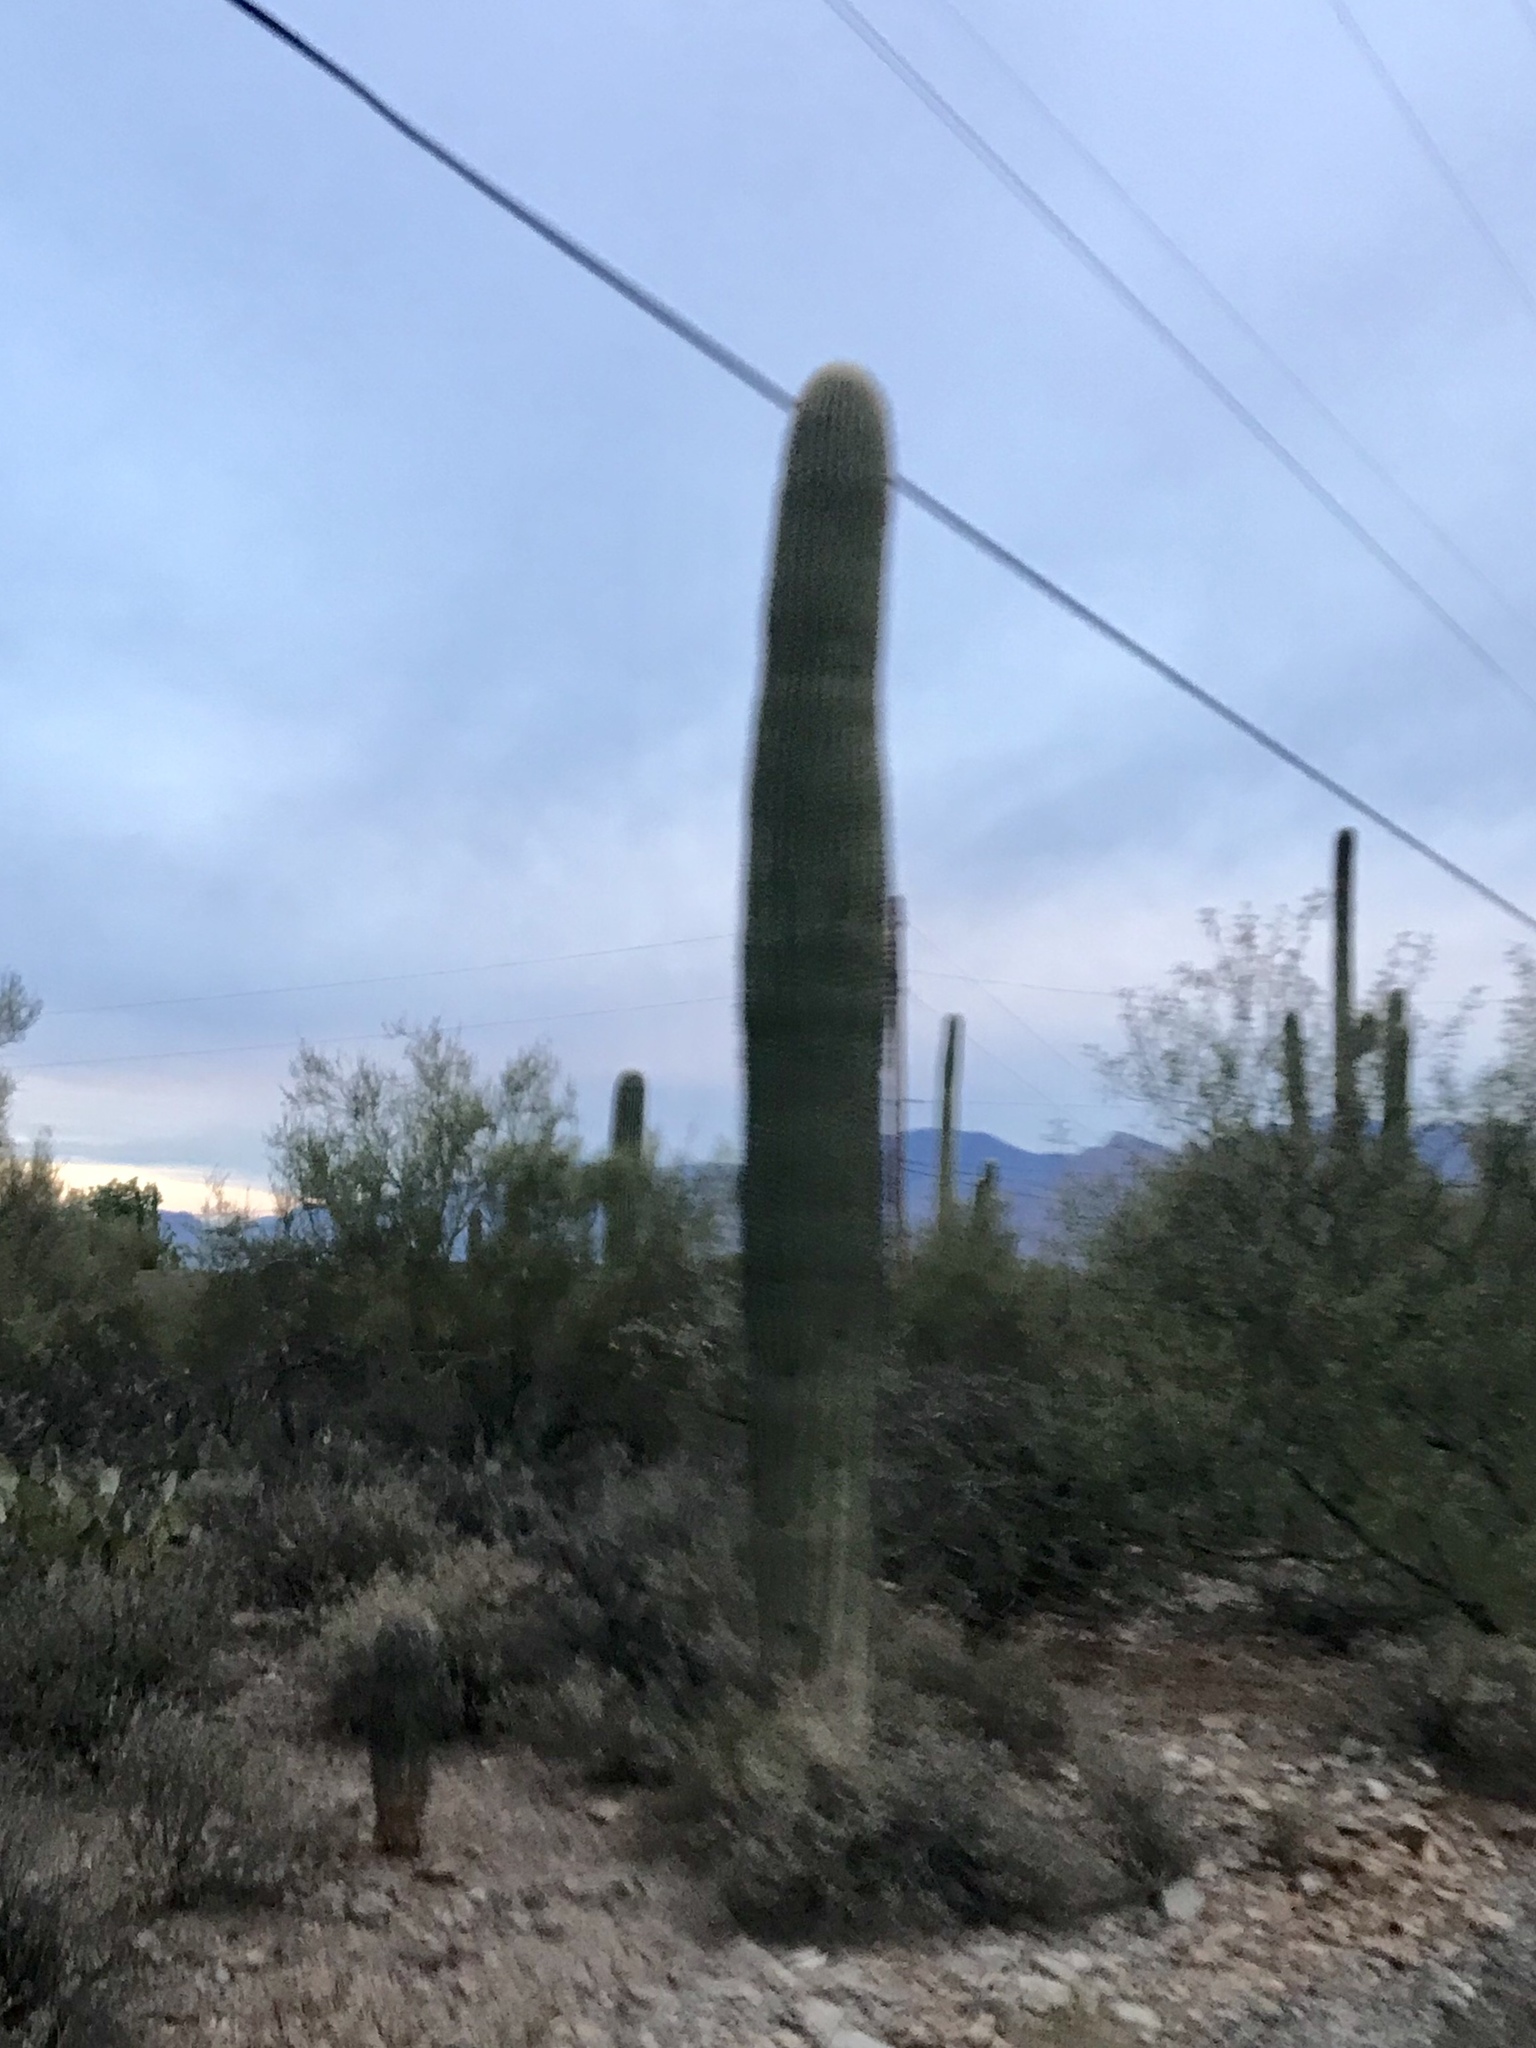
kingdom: Plantae
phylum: Tracheophyta
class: Magnoliopsida
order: Caryophyllales
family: Cactaceae
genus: Carnegiea
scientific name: Carnegiea gigantea
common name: Saguaro
